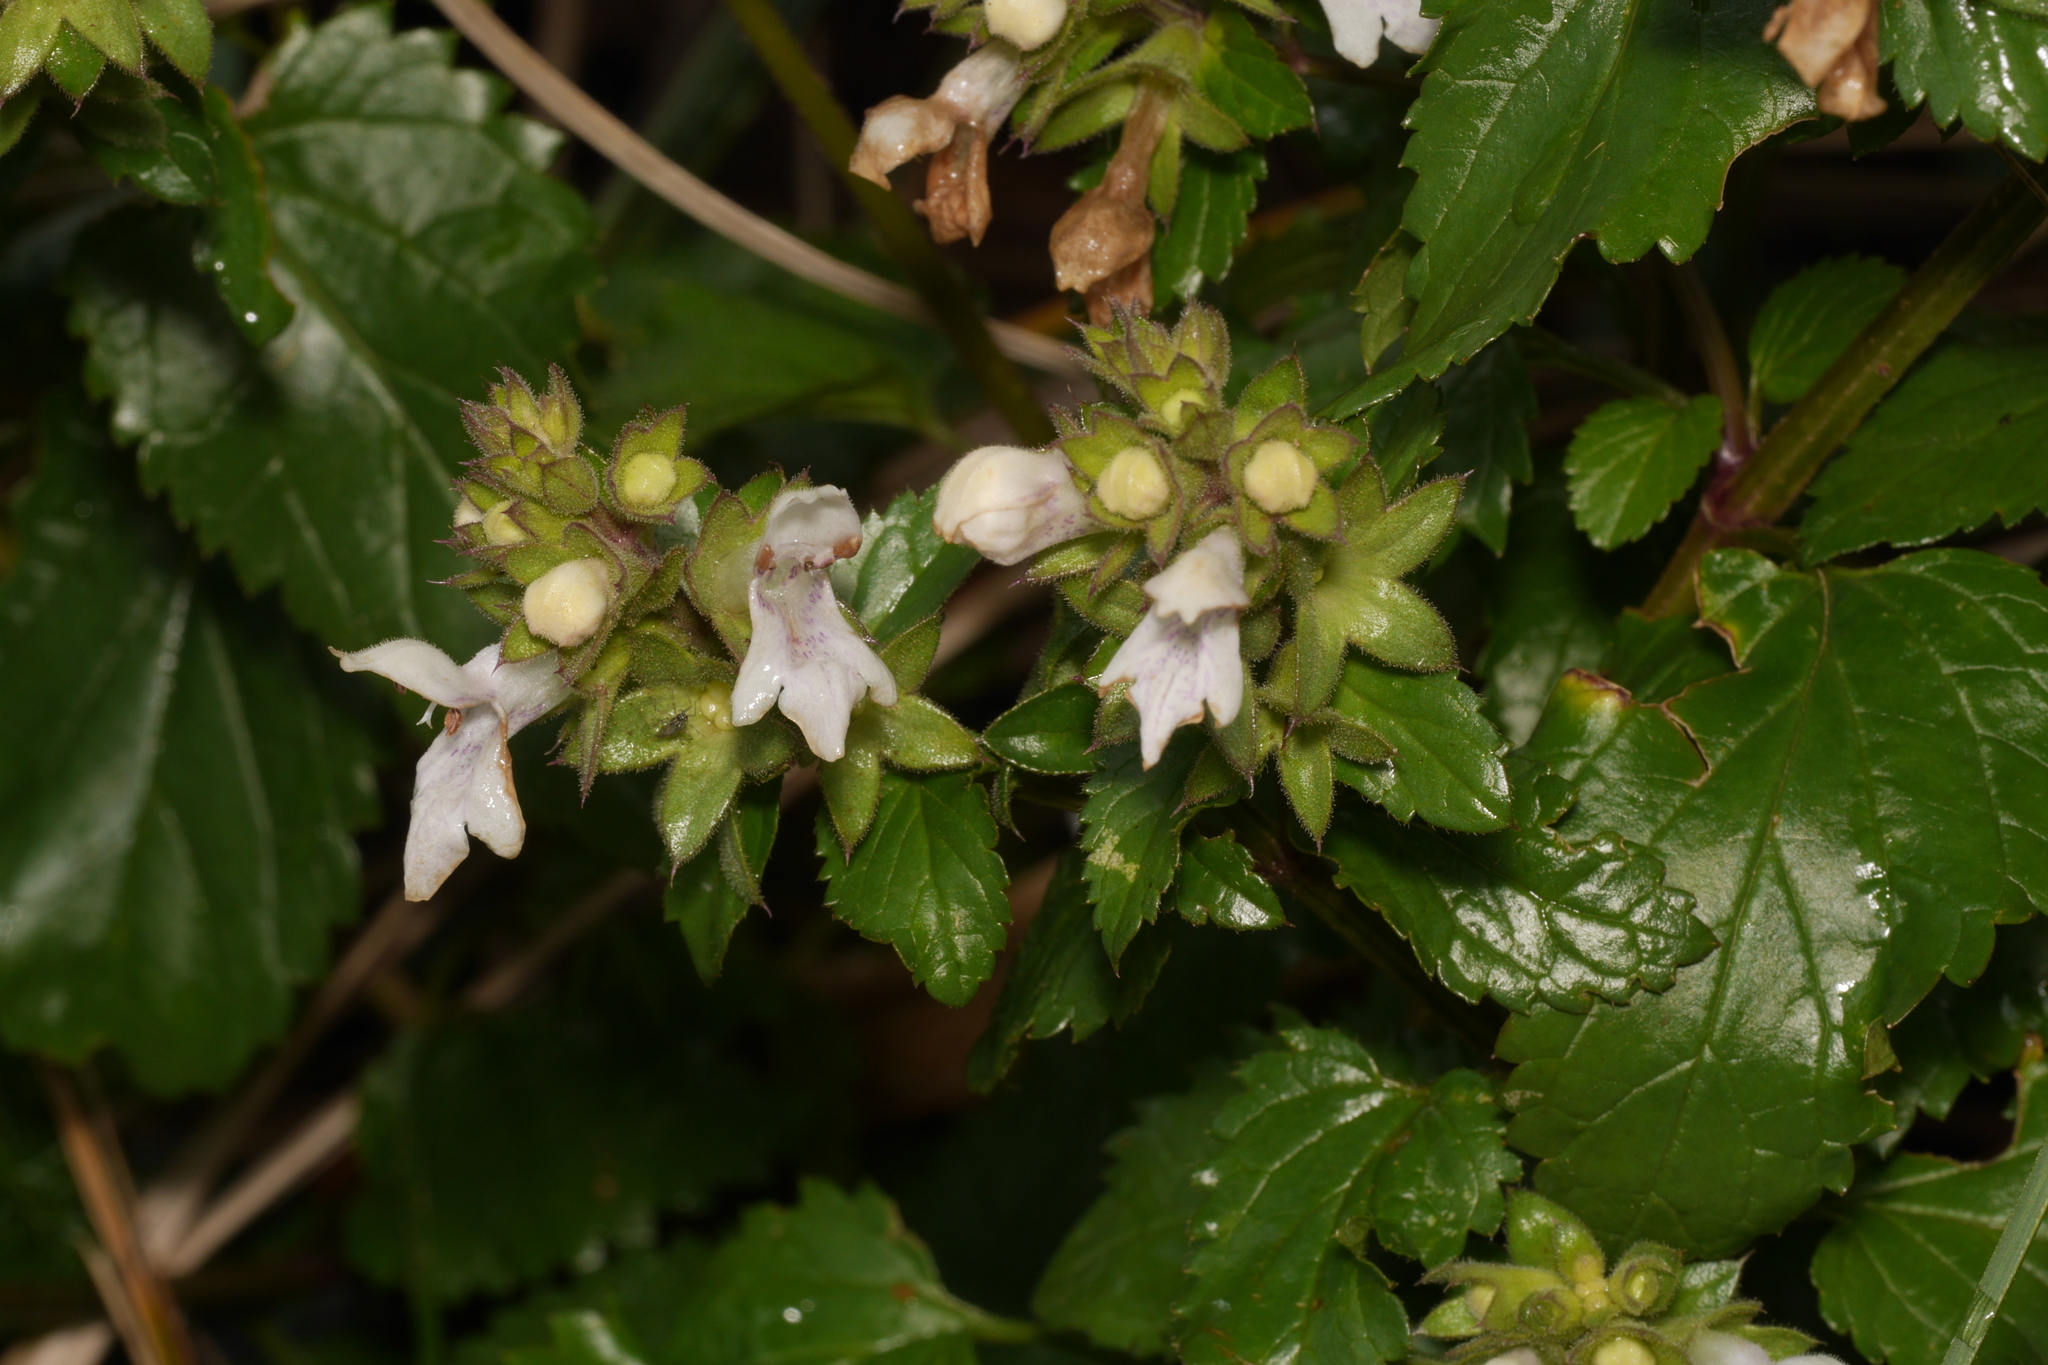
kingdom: Plantae
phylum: Tracheophyta
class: Magnoliopsida
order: Lamiales
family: Lamiaceae
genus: Prasium
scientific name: Prasium majus
